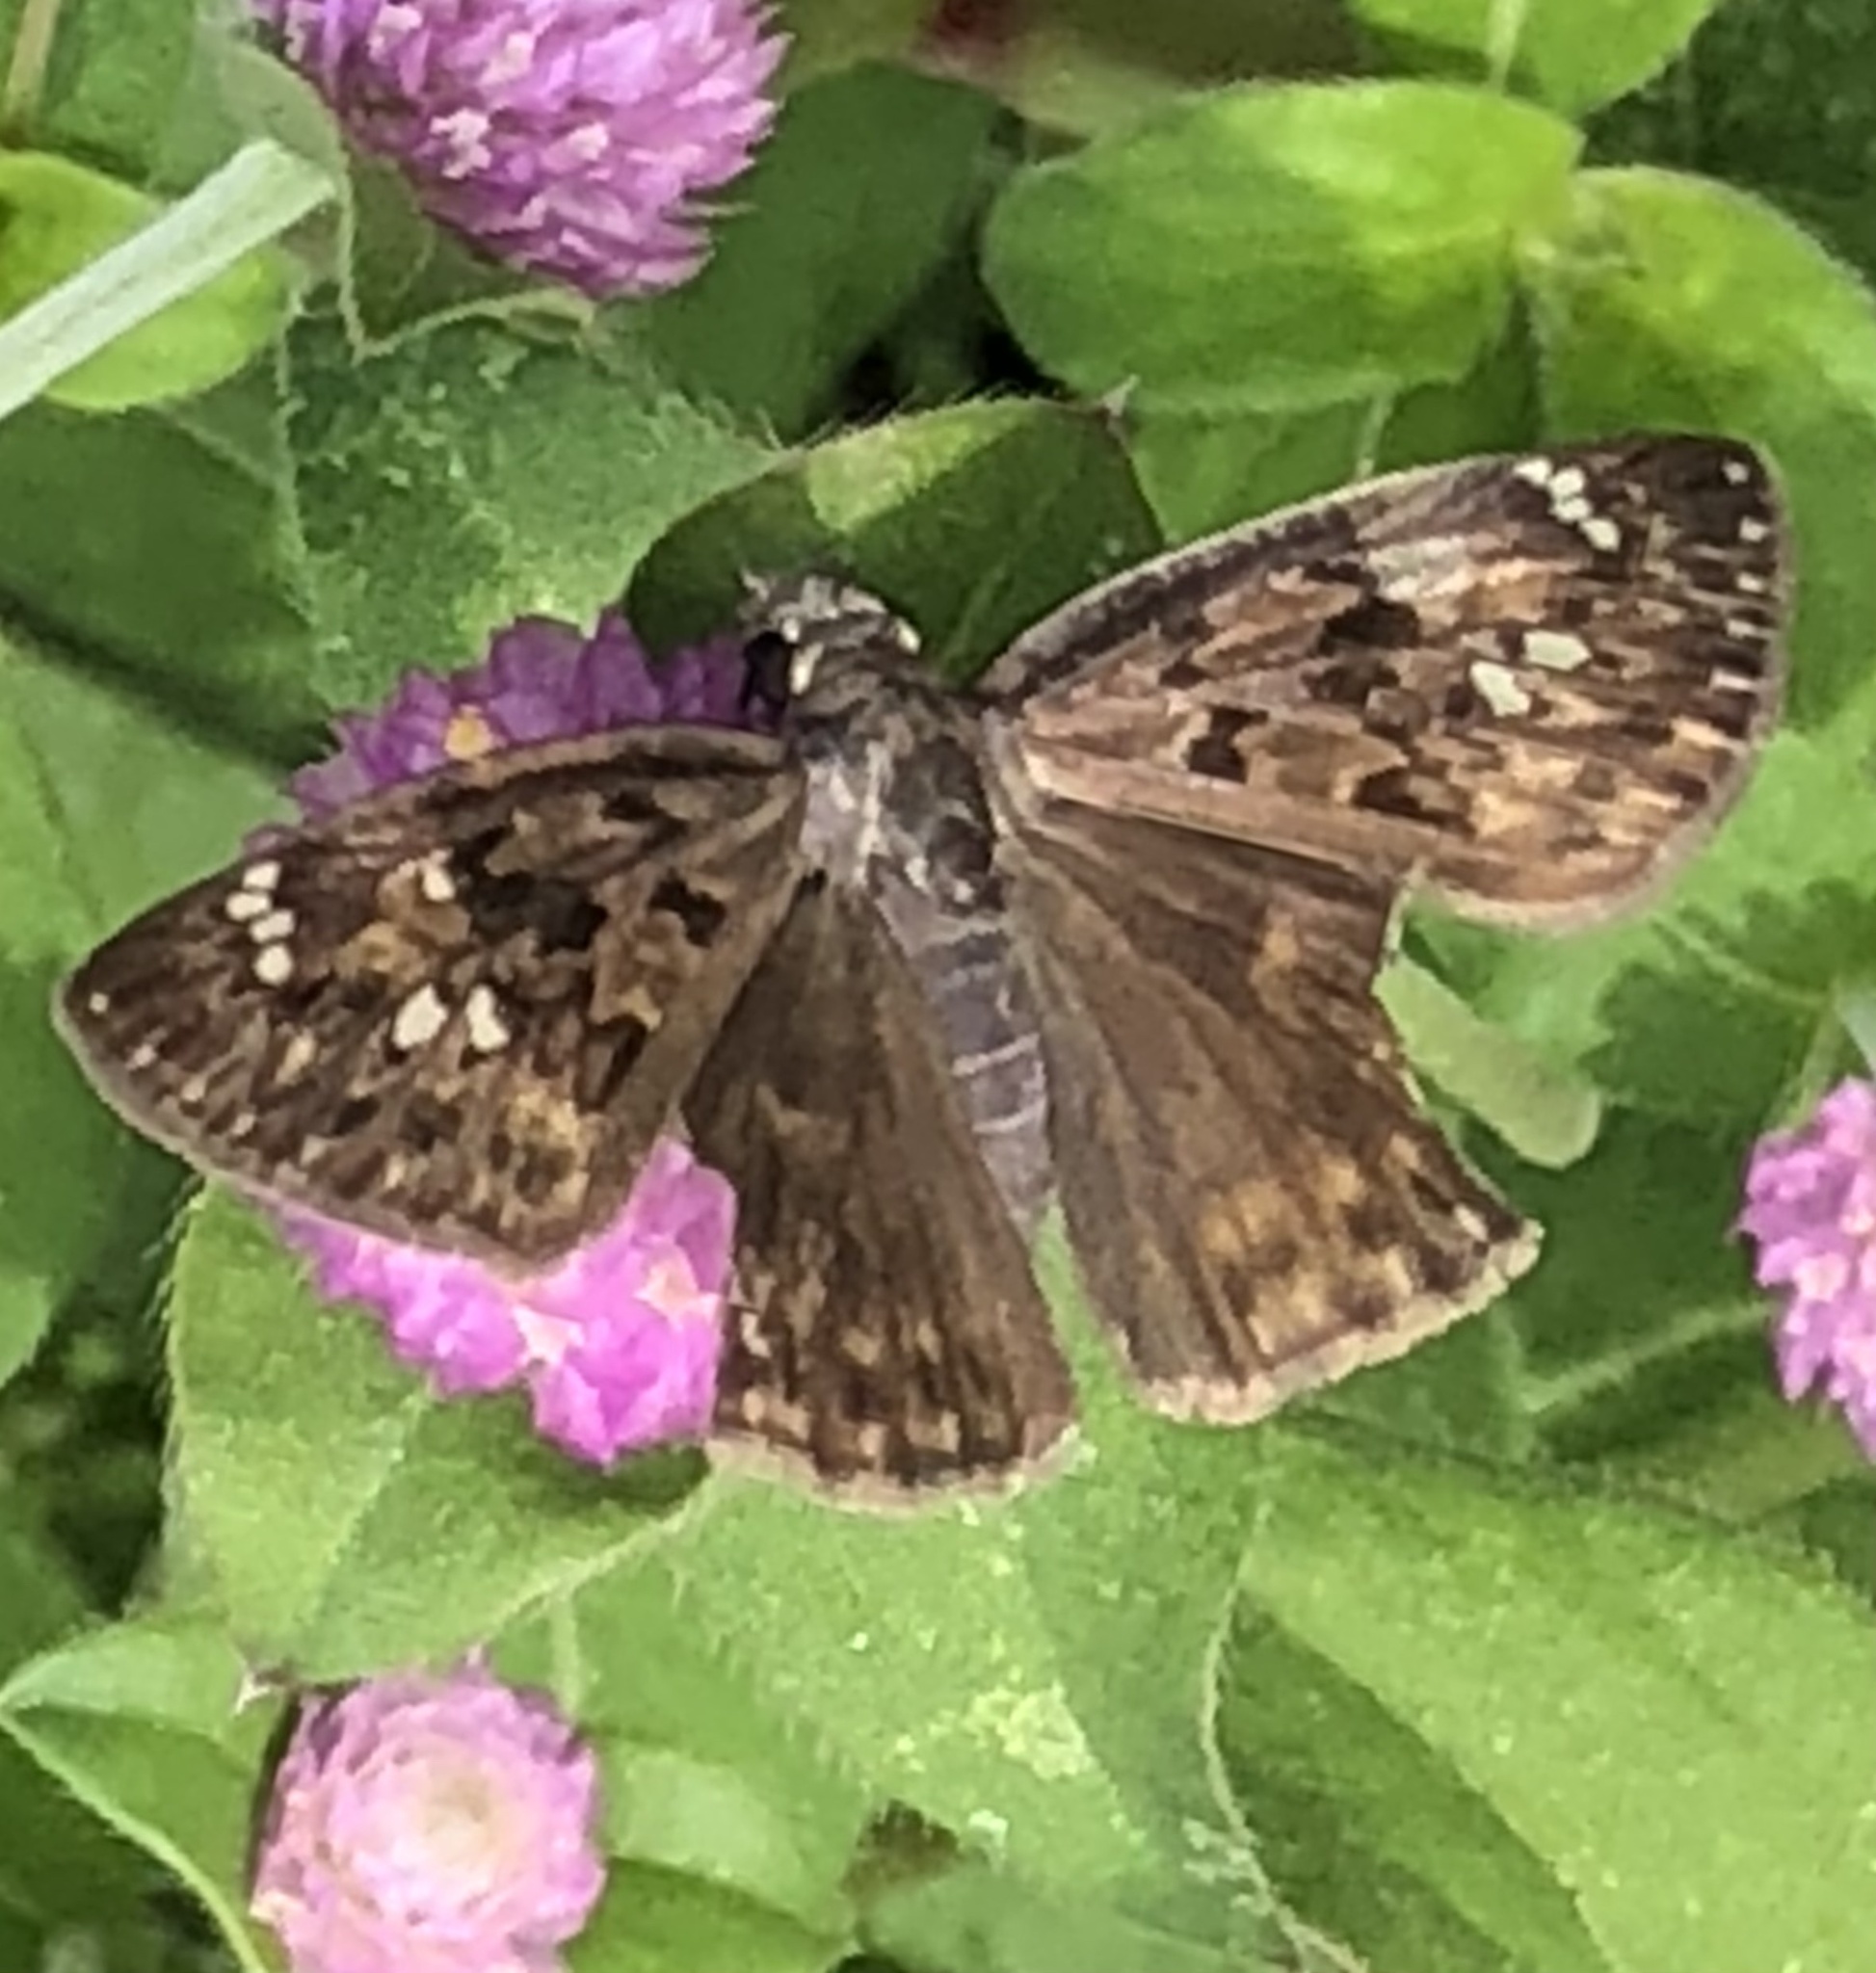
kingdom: Animalia
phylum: Arthropoda
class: Insecta
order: Lepidoptera
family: Hesperiidae
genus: Erynnis
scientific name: Erynnis horatius
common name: Horace's duskywing
